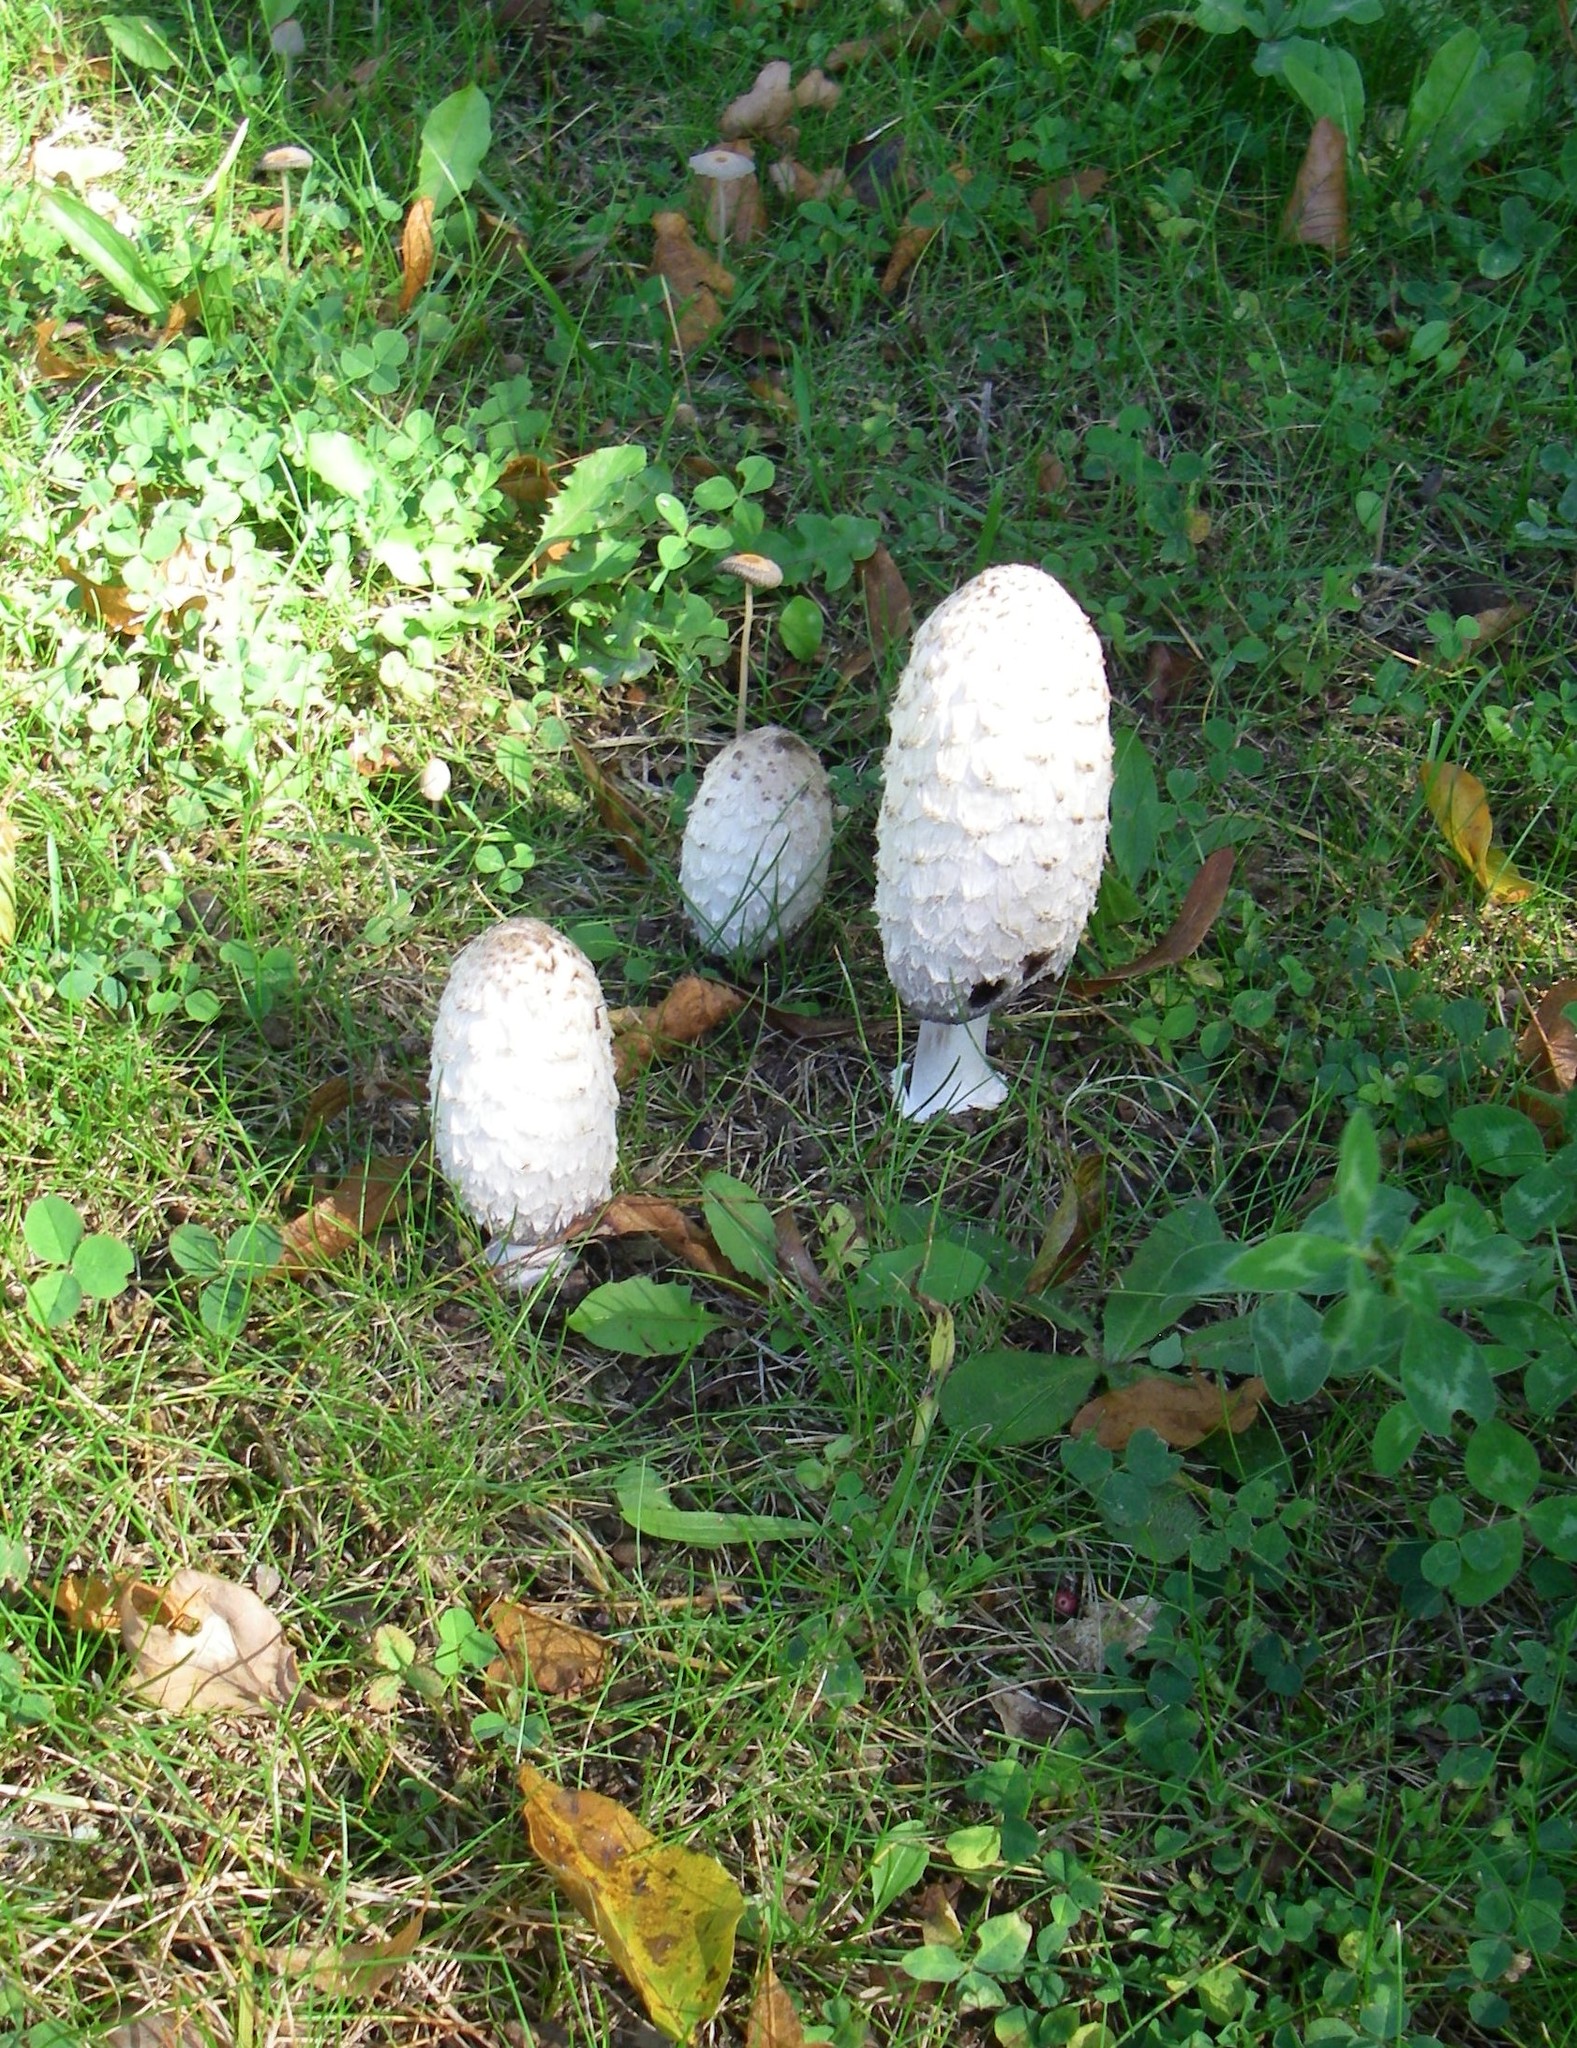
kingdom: Fungi
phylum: Basidiomycota
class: Agaricomycetes
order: Agaricales
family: Agaricaceae
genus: Coprinus
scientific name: Coprinus comatus
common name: Lawyer's wig
